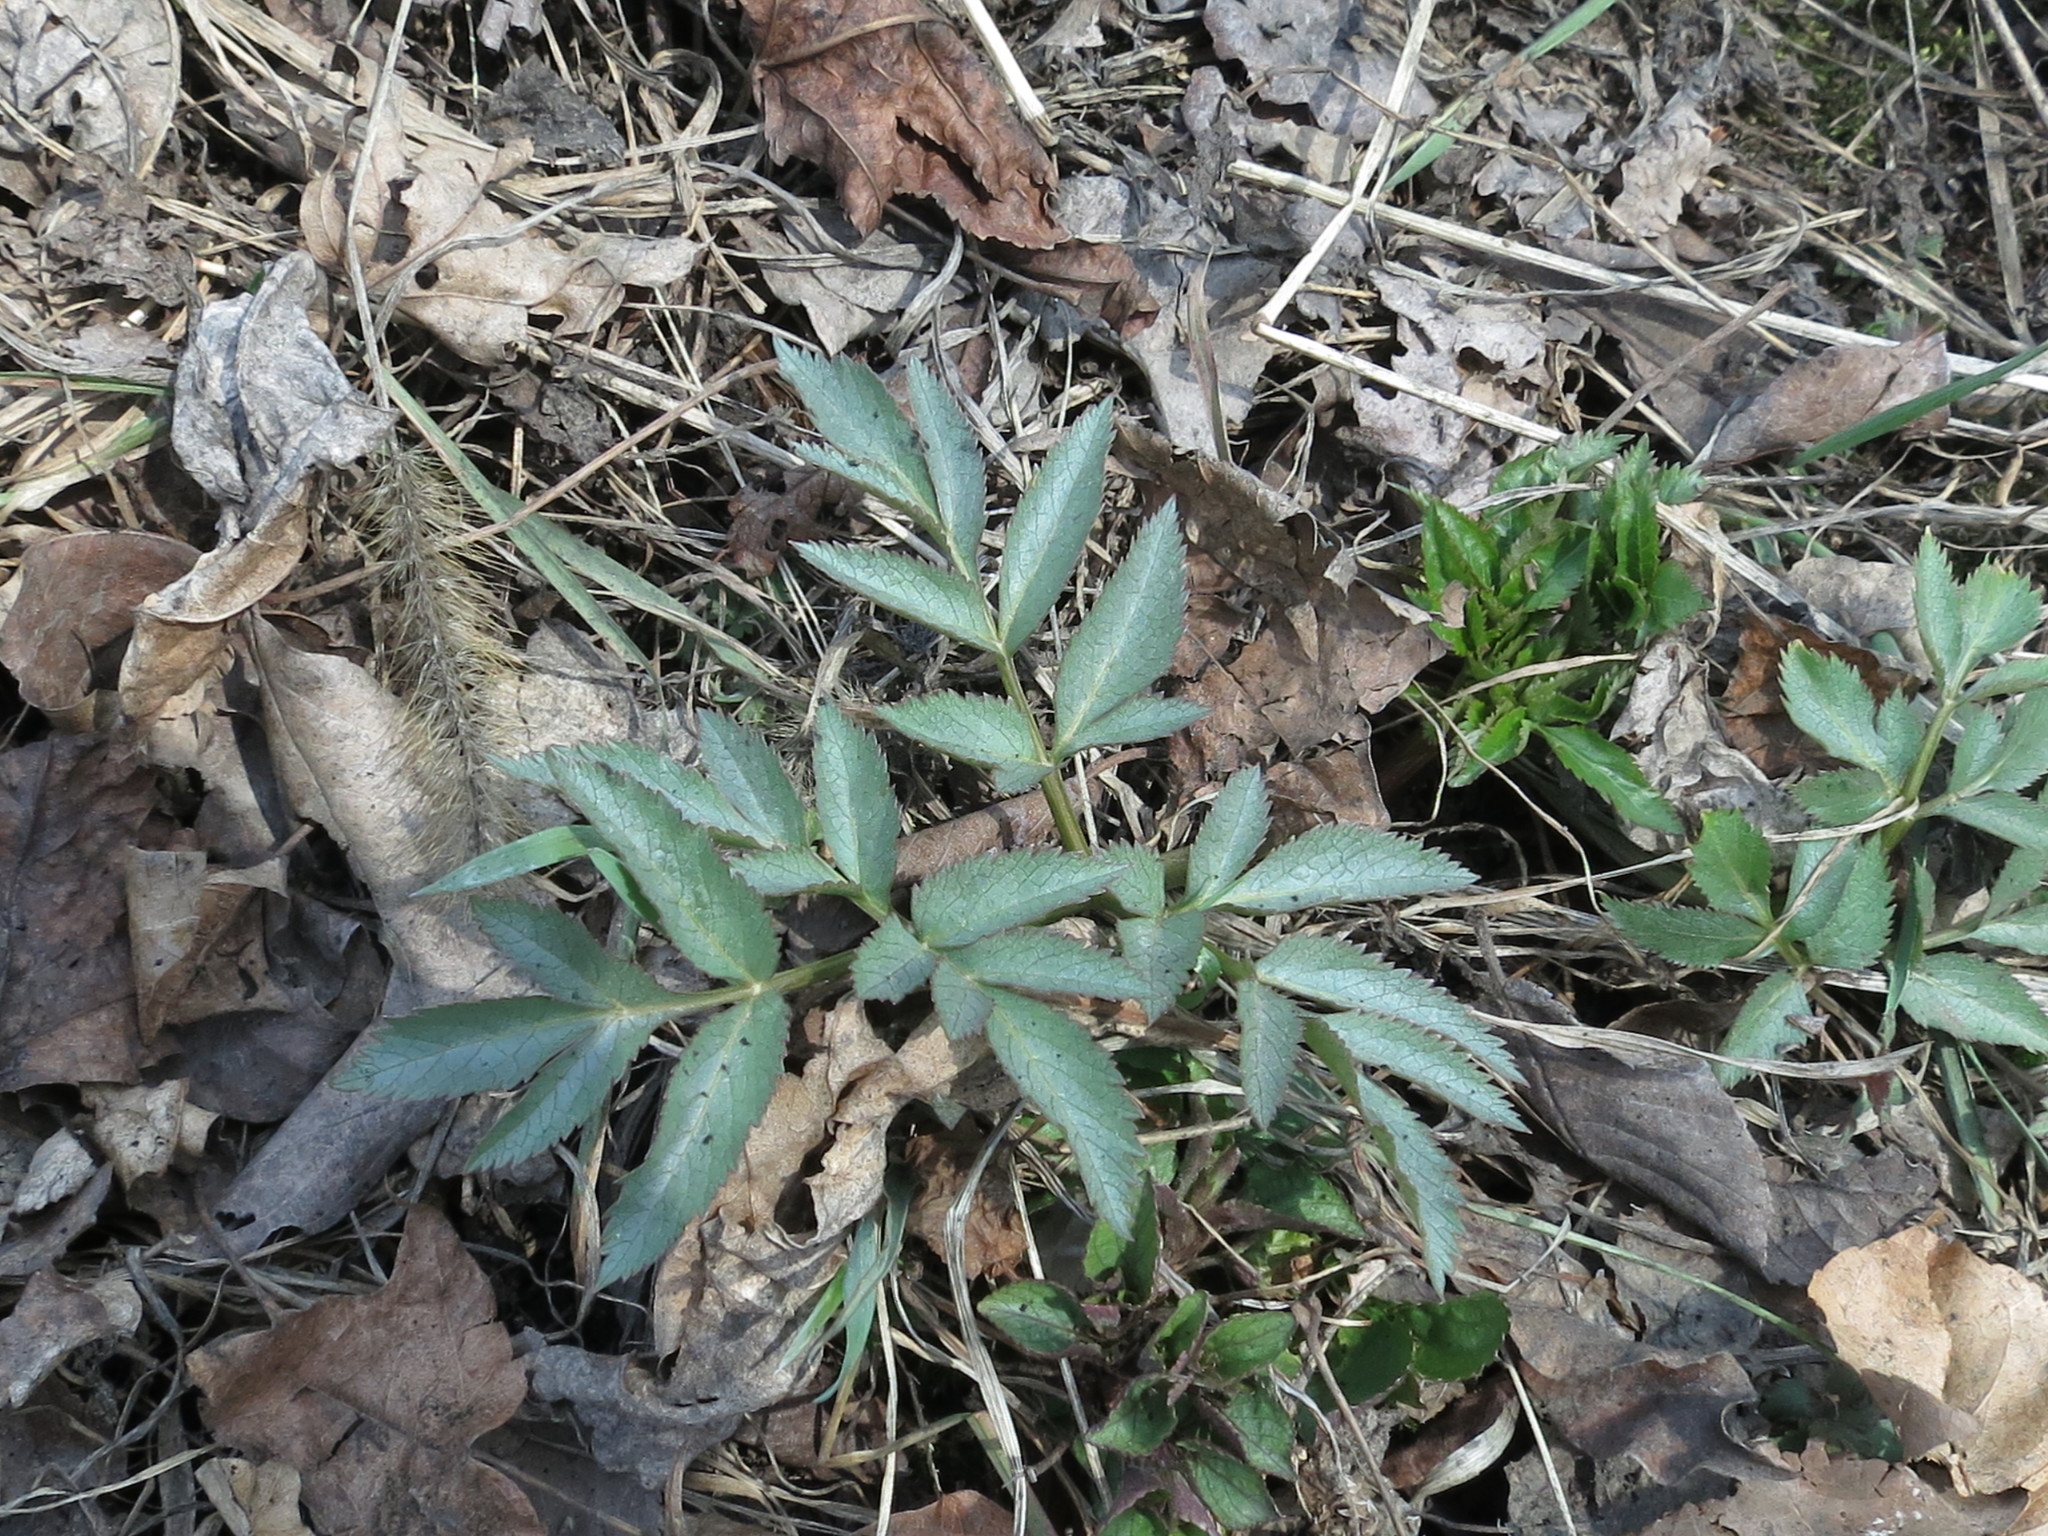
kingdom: Plantae
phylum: Tracheophyta
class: Magnoliopsida
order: Apiales
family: Apiaceae
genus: Angelica
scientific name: Angelica dahurica
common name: Dahurian angelica
